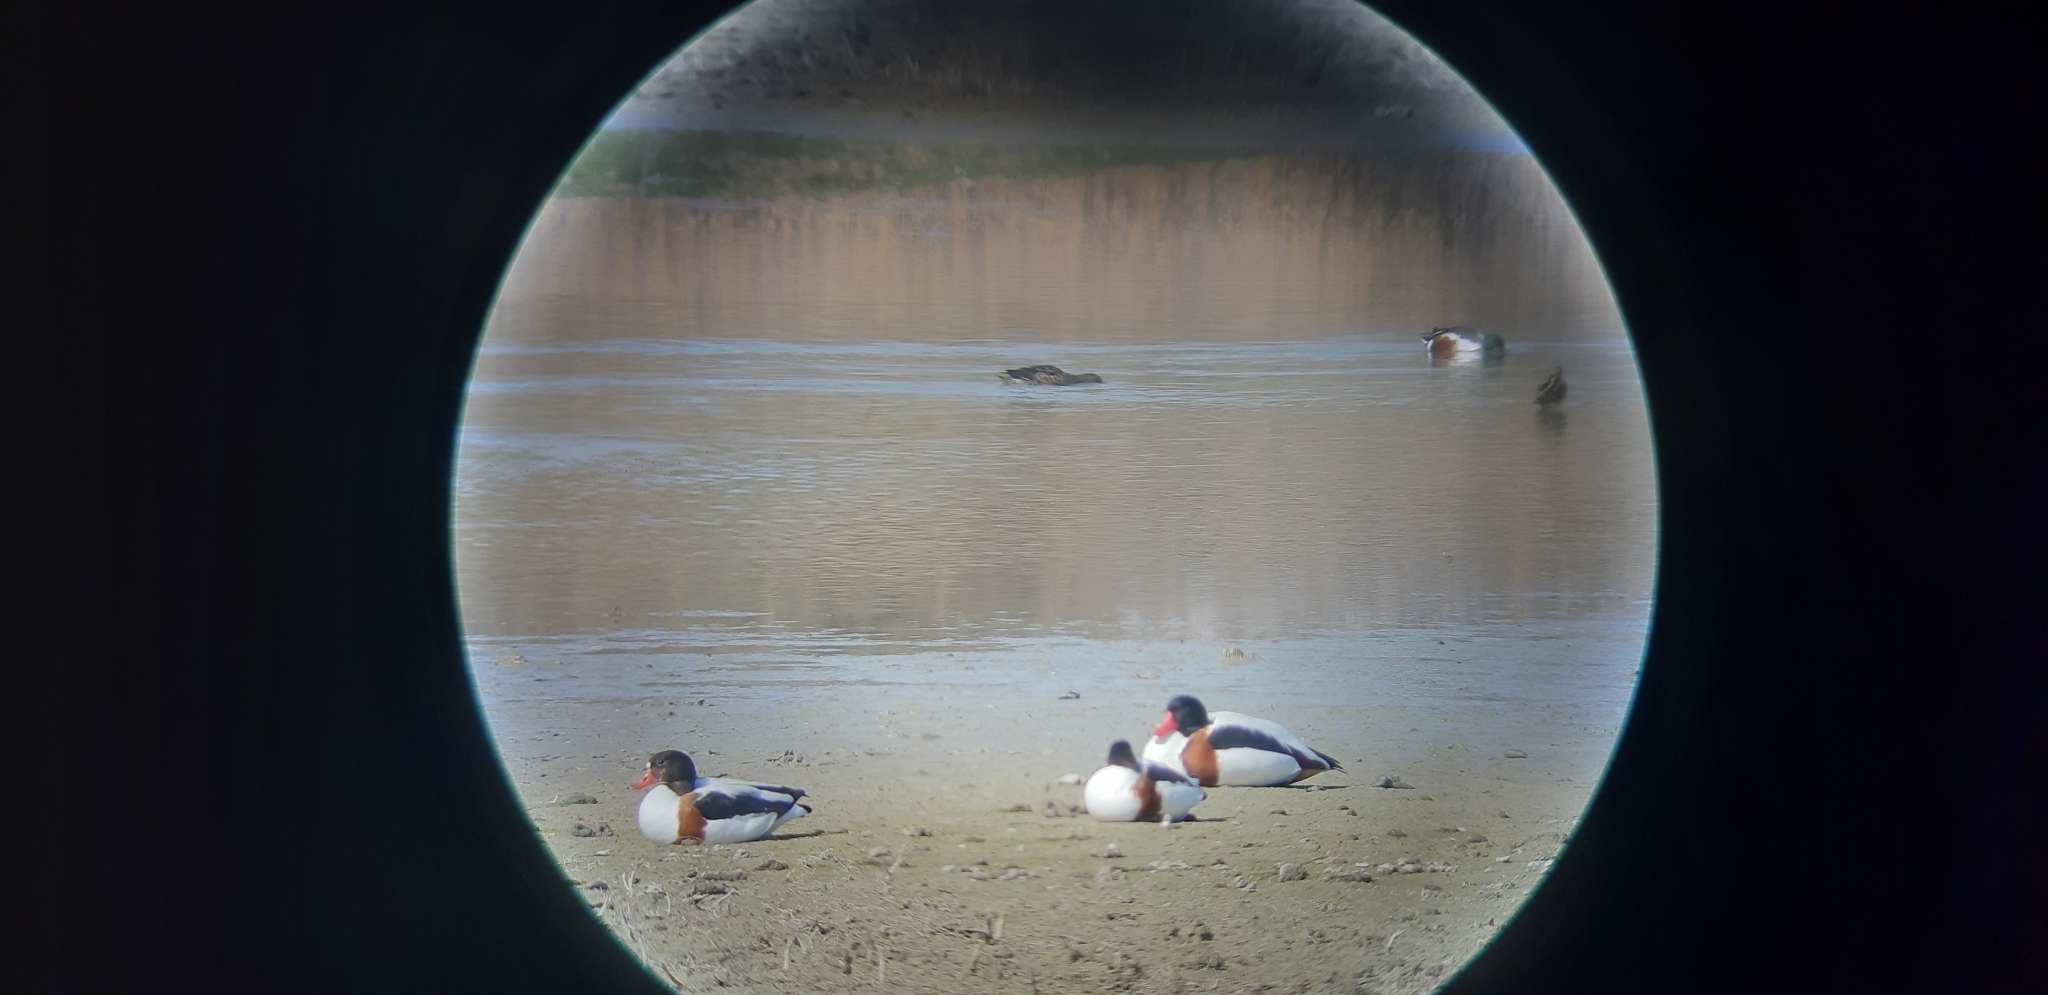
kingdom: Animalia
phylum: Chordata
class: Aves
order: Anseriformes
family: Anatidae
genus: Tadorna
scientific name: Tadorna tadorna
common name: Common shelduck
